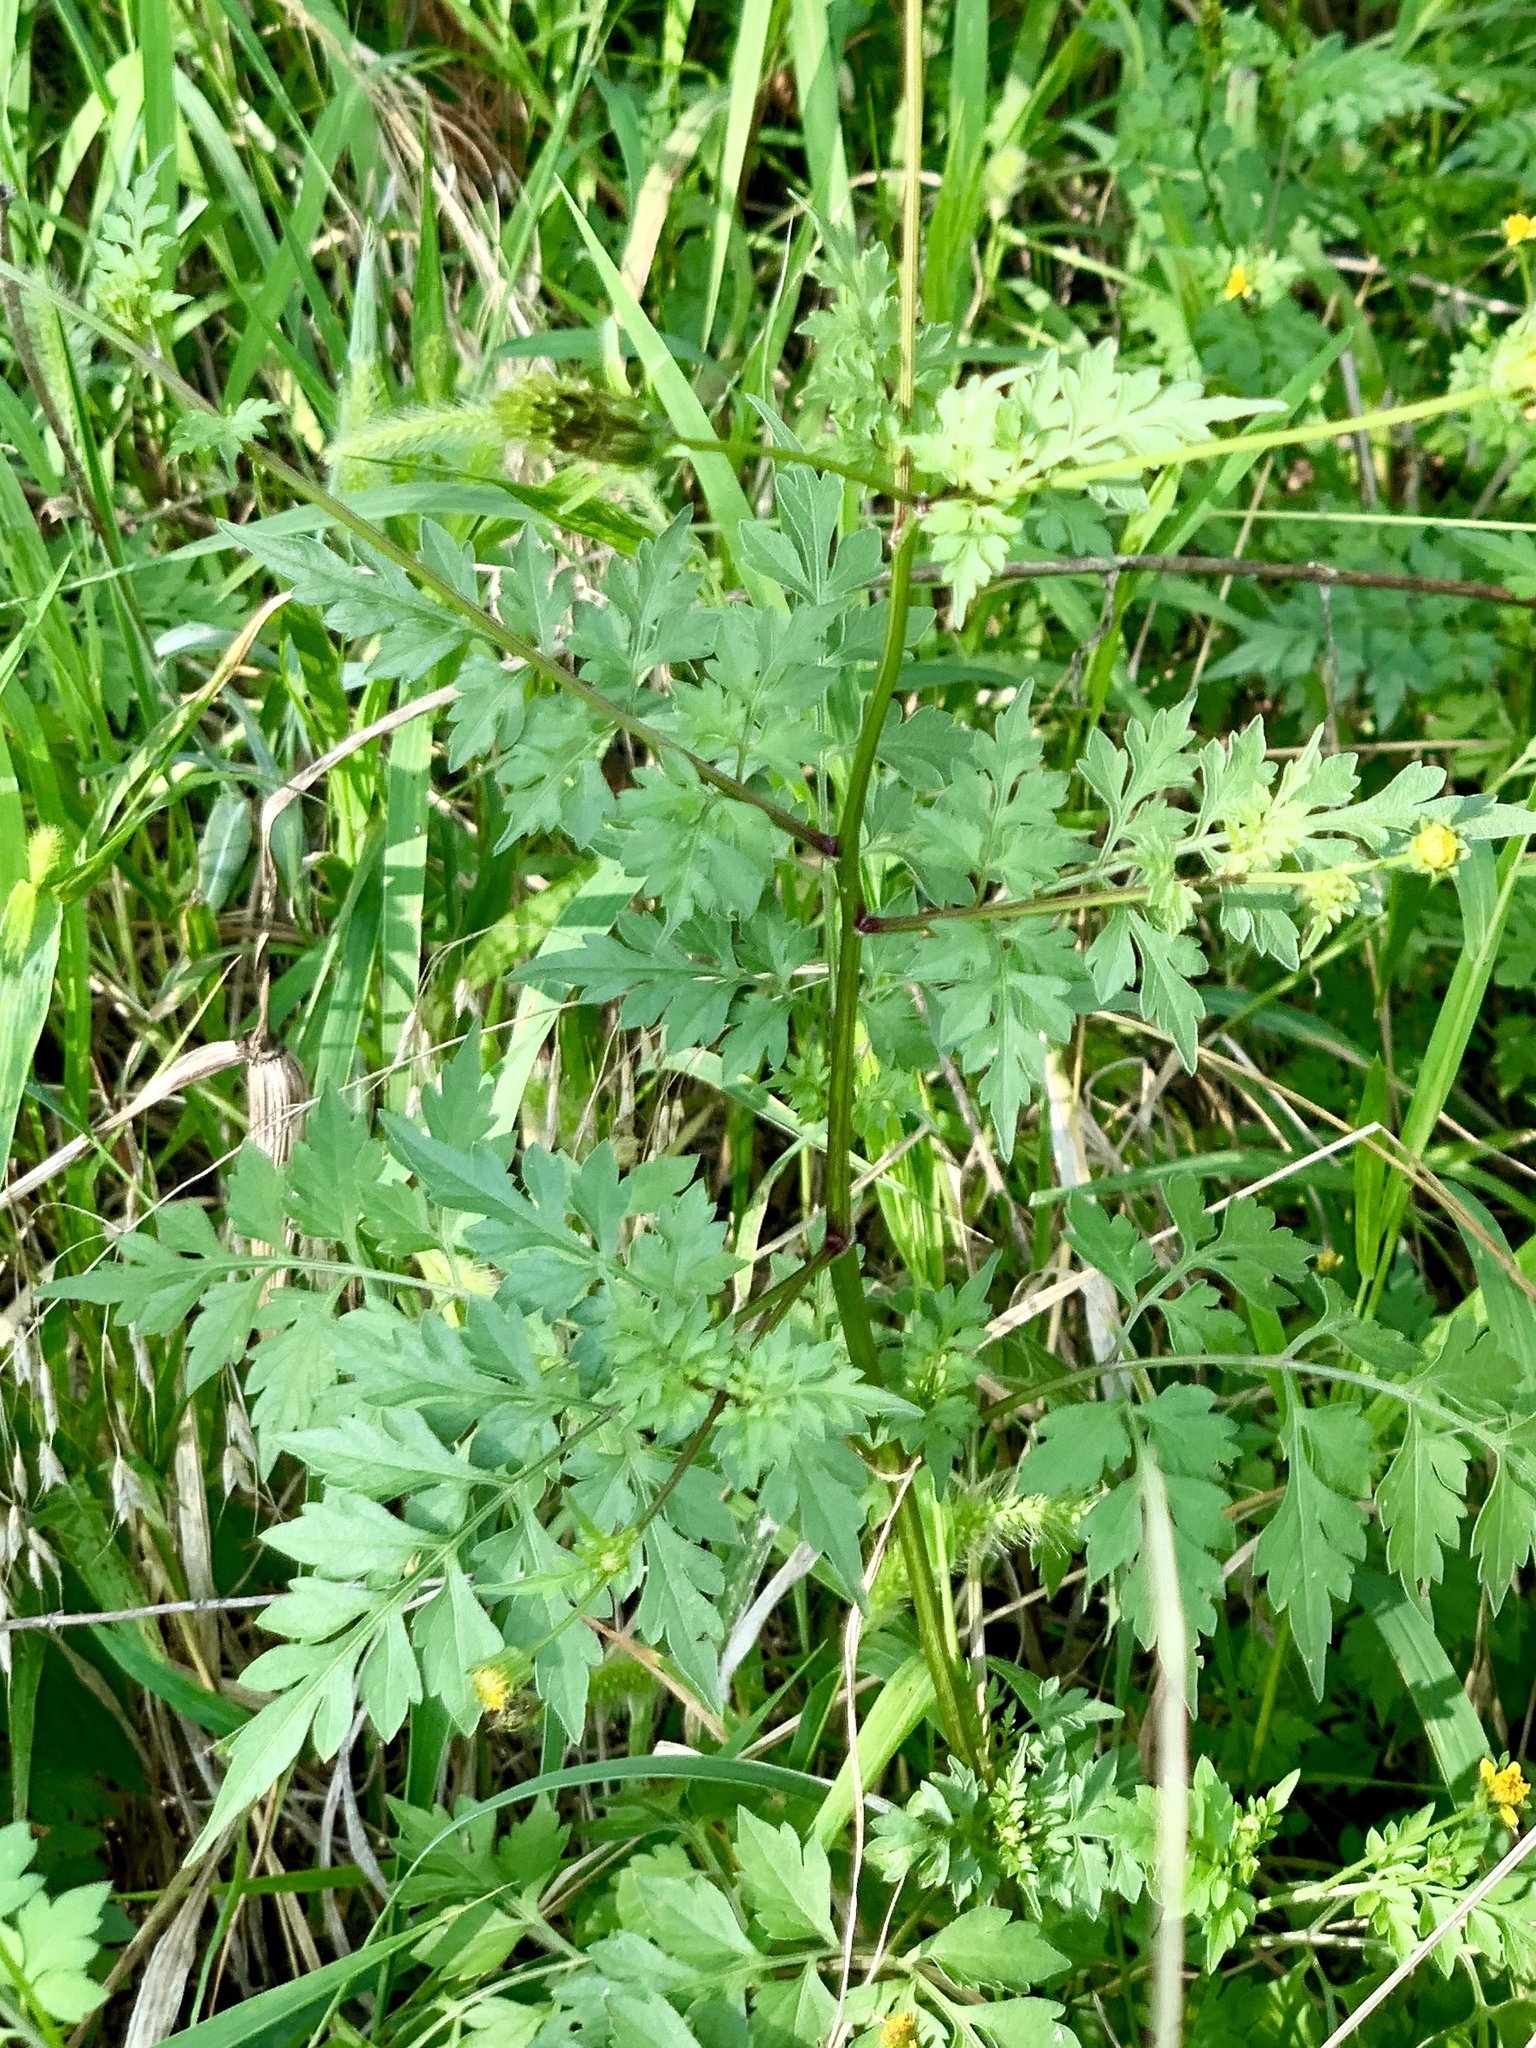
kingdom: Plantae
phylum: Tracheophyta
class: Magnoliopsida
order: Asterales
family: Asteraceae
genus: Bidens
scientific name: Bidens bipinnata
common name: Spanish-needles
